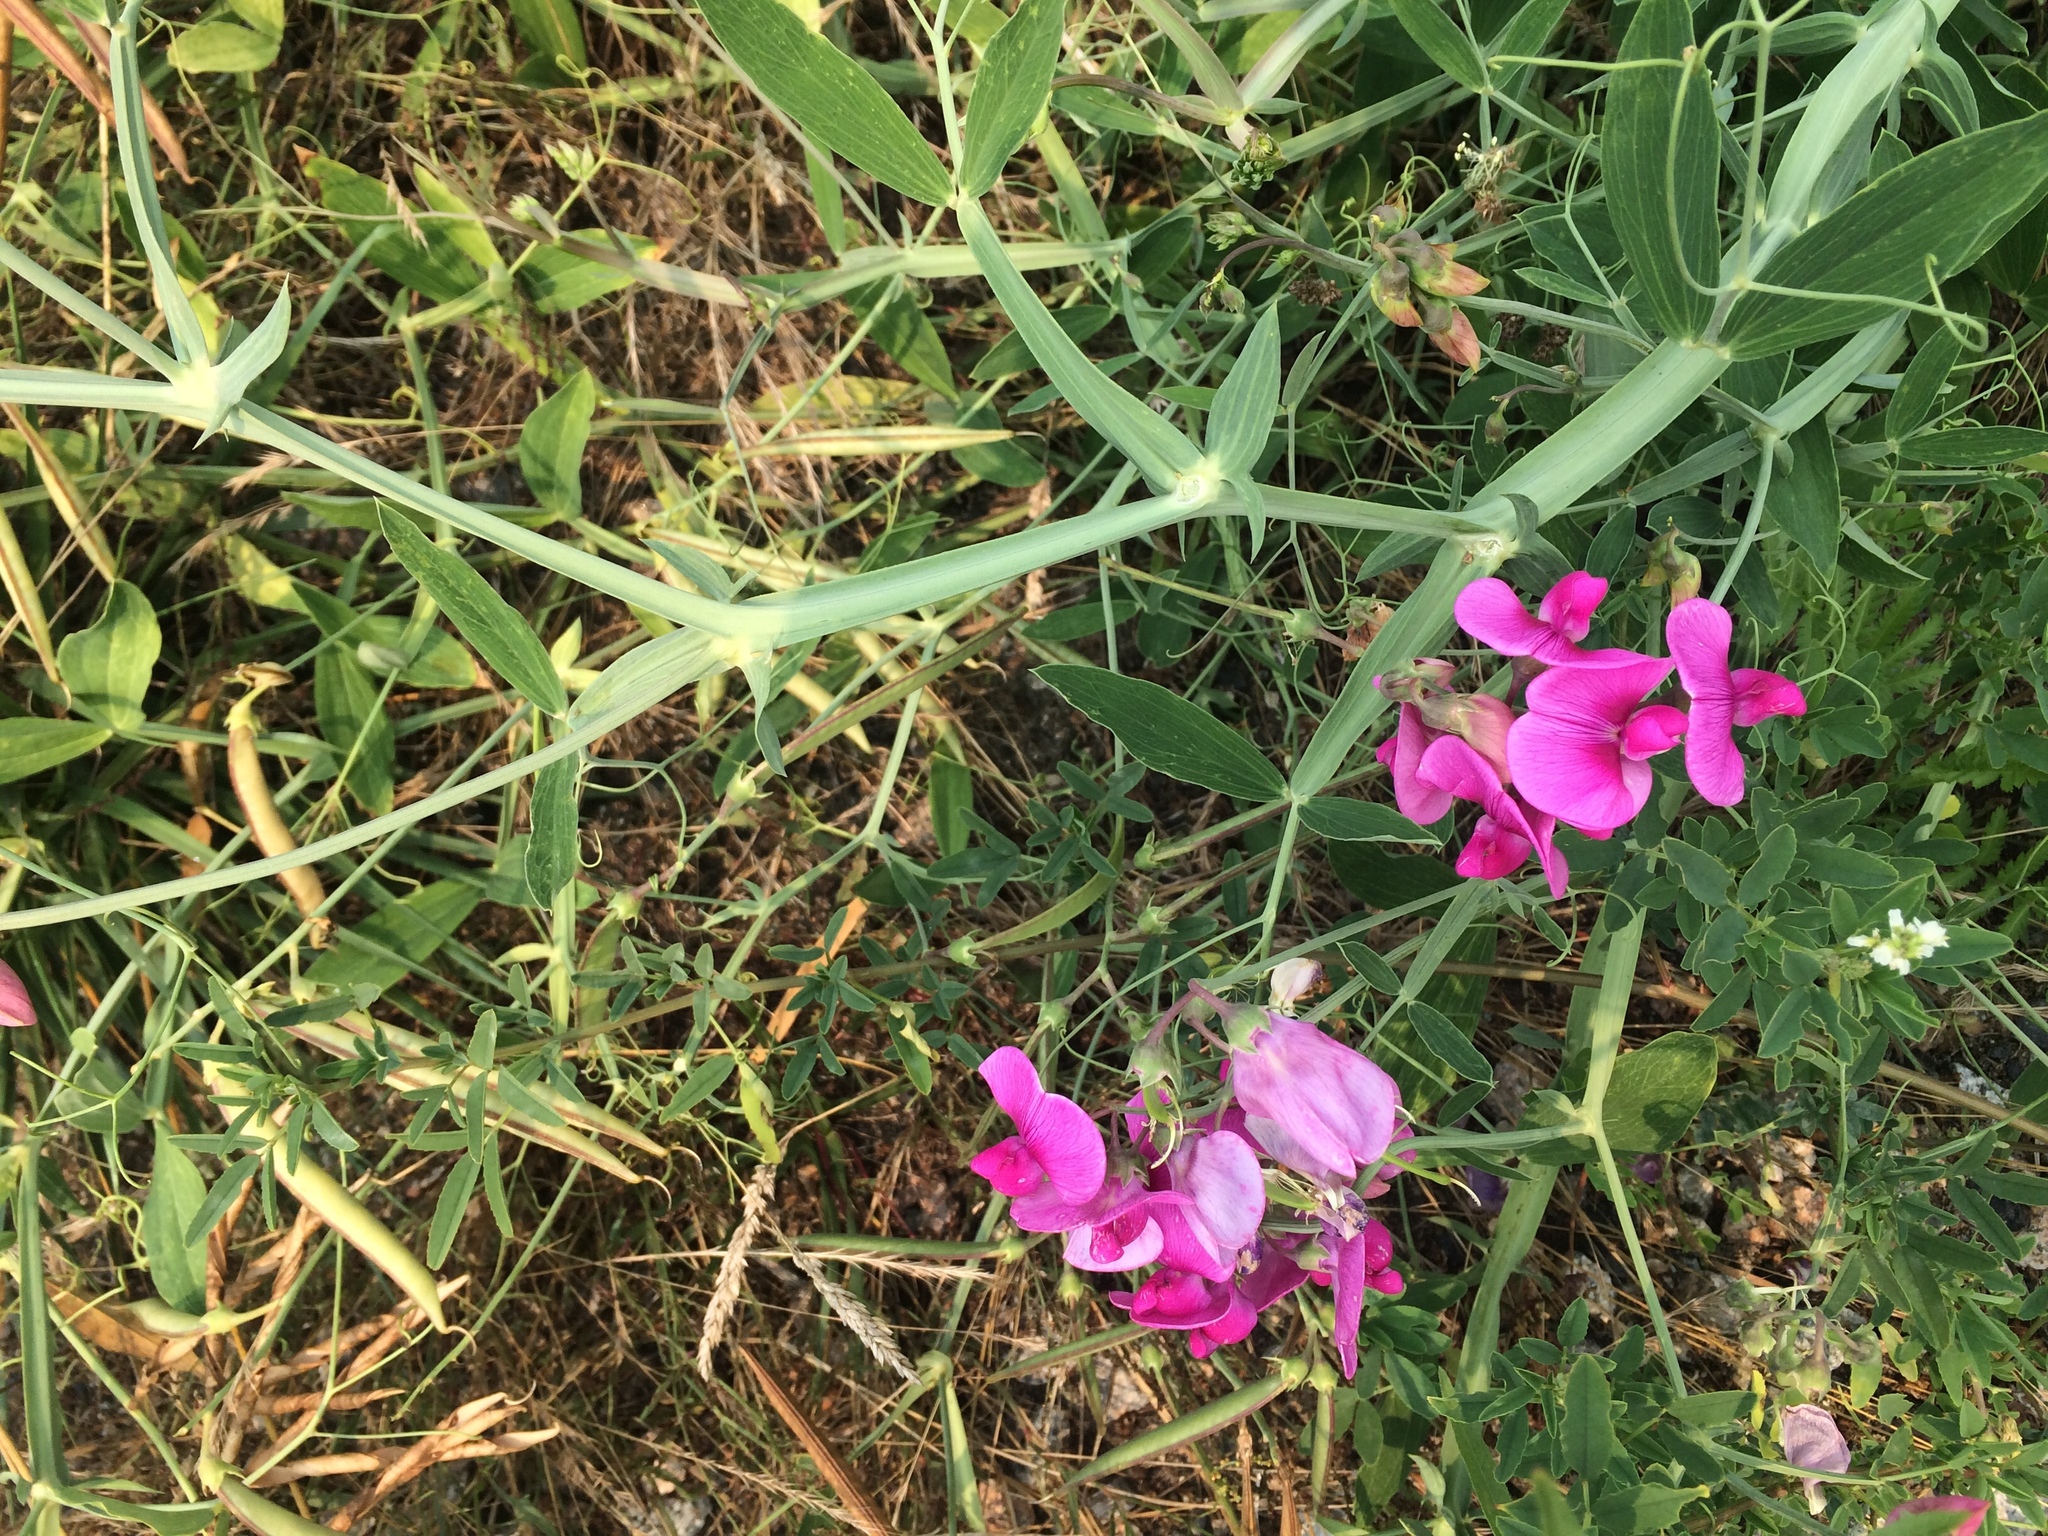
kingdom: Plantae
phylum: Tracheophyta
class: Magnoliopsida
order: Fabales
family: Fabaceae
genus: Lathyrus
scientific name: Lathyrus latifolius
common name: Perennial pea
